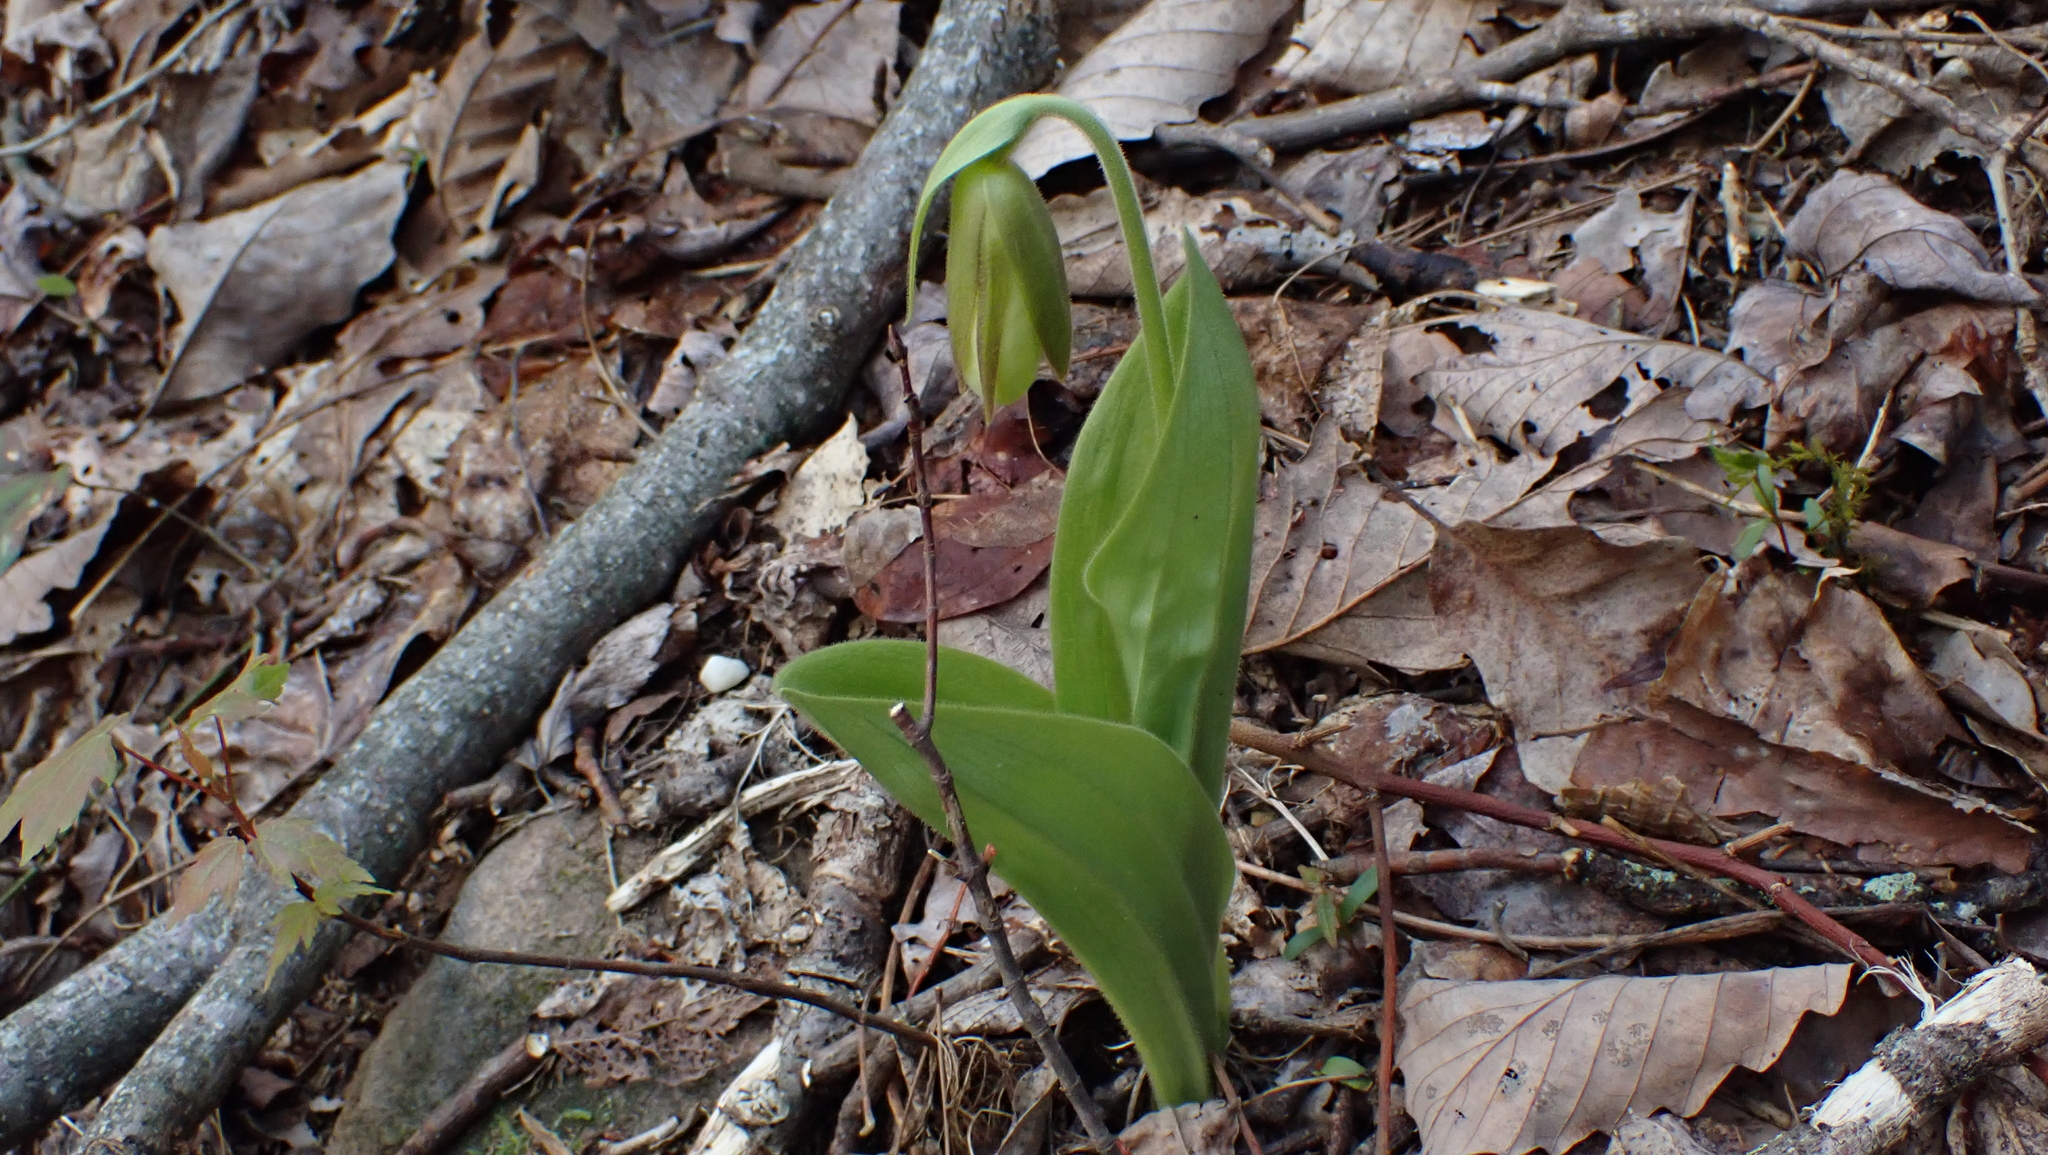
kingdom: Plantae
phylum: Tracheophyta
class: Liliopsida
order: Asparagales
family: Orchidaceae
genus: Cypripedium
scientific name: Cypripedium acaule
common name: Pink lady's-slipper
